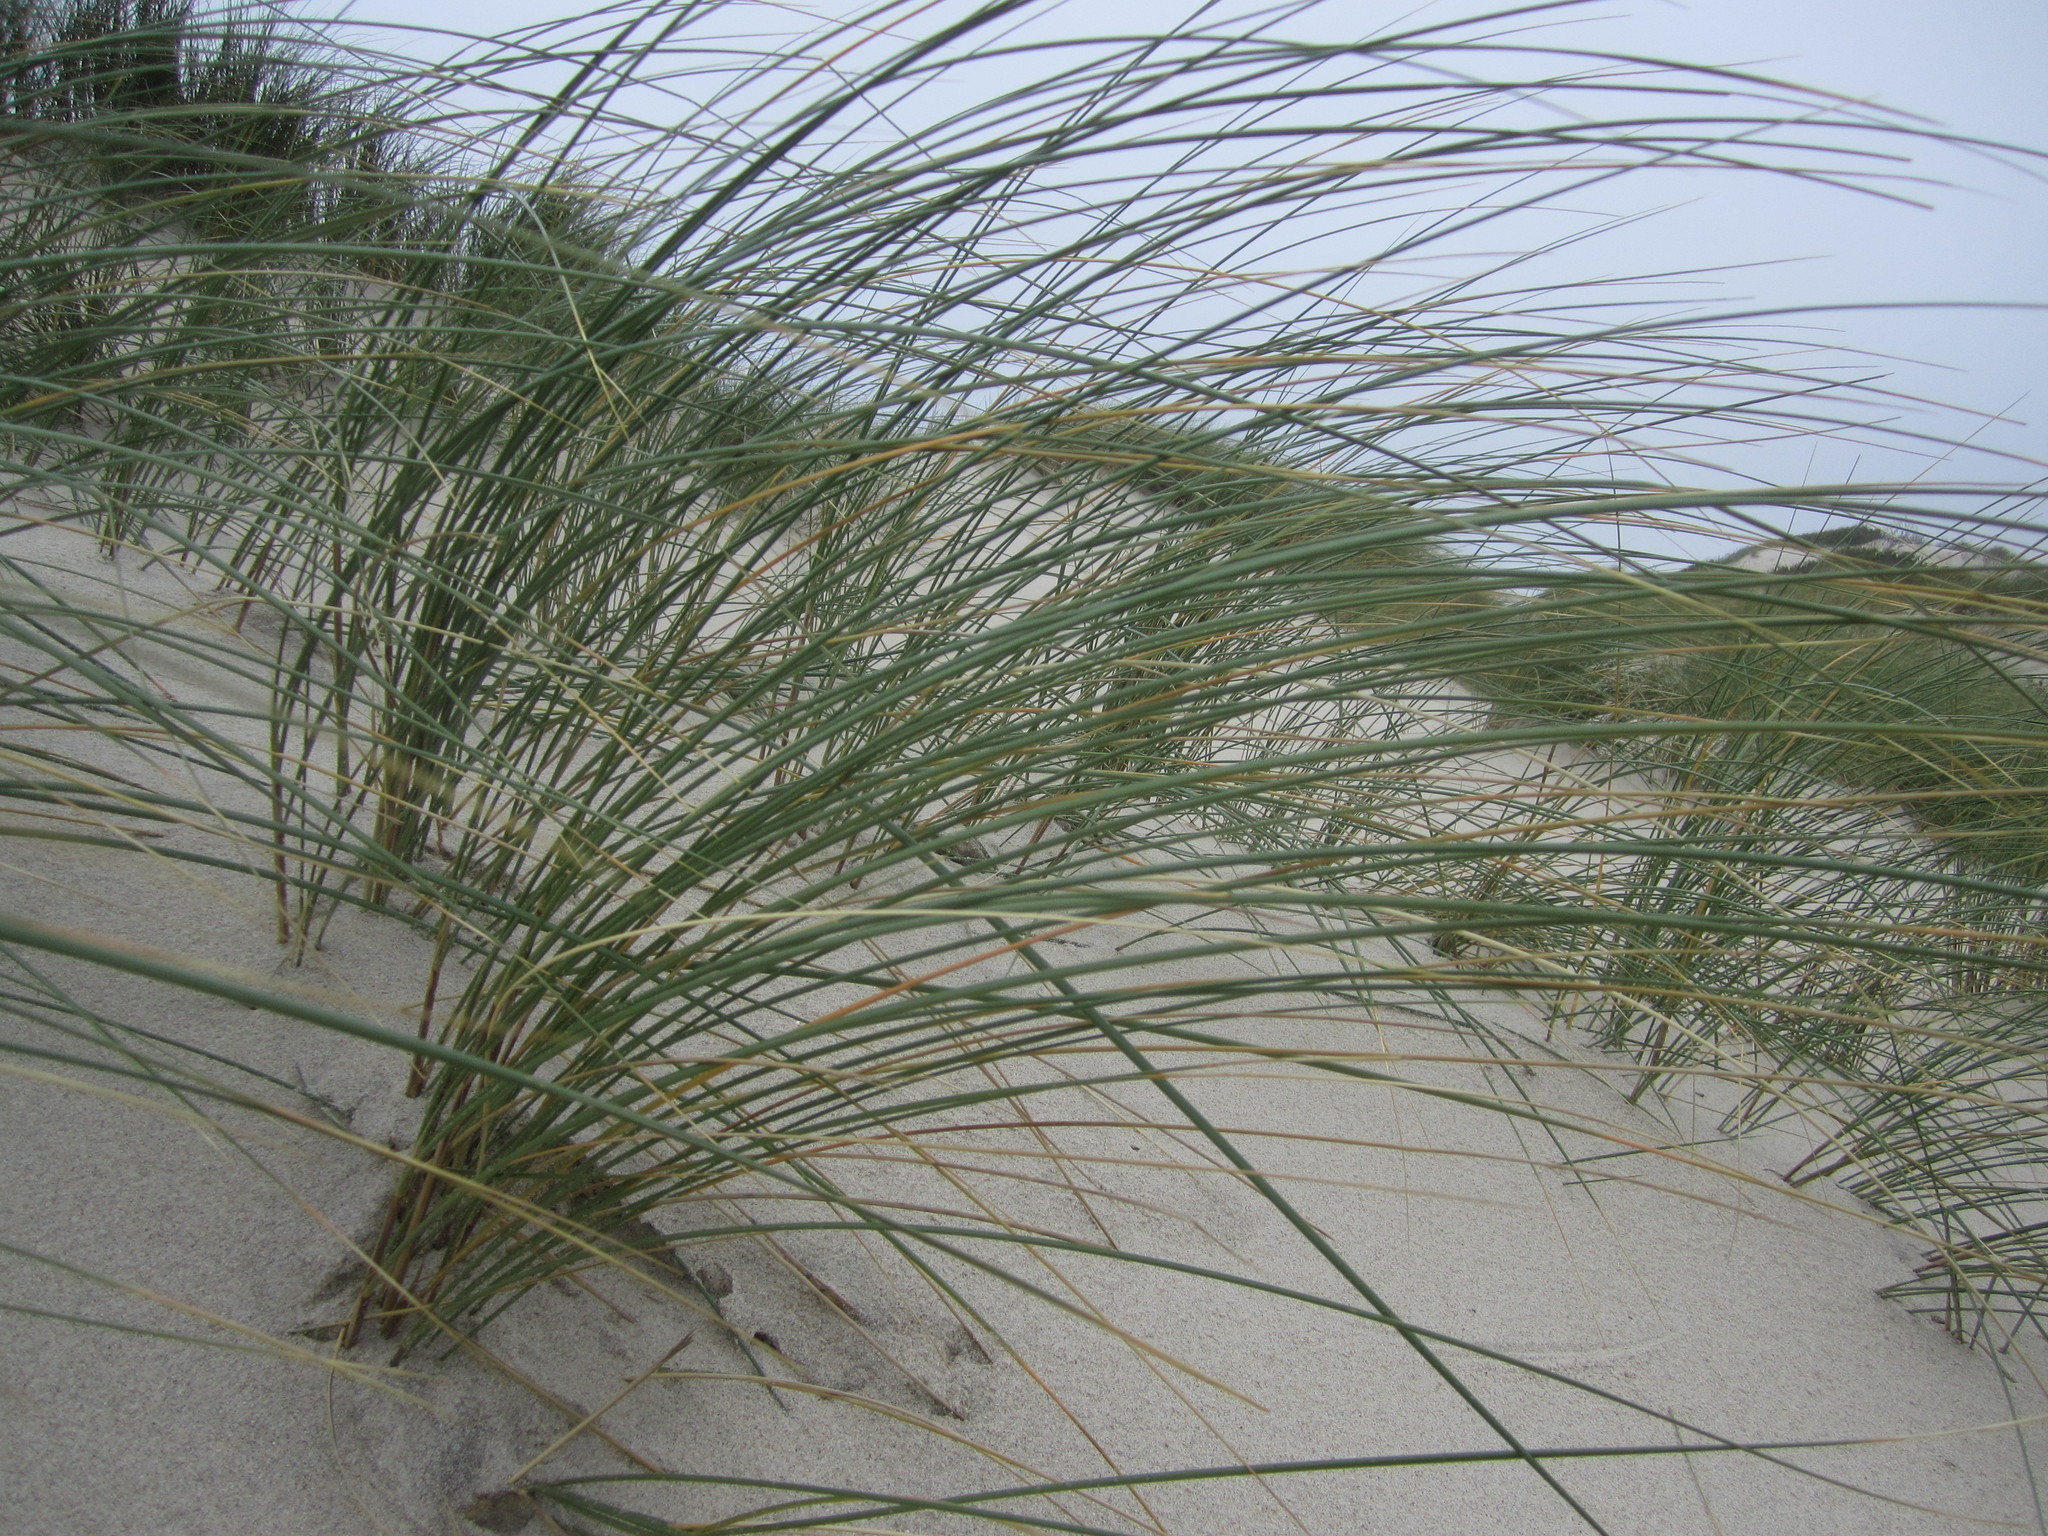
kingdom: Plantae
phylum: Tracheophyta
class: Liliopsida
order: Poales
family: Poaceae
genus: Calamagrostis
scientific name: Calamagrostis arenaria
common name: European beachgrass
